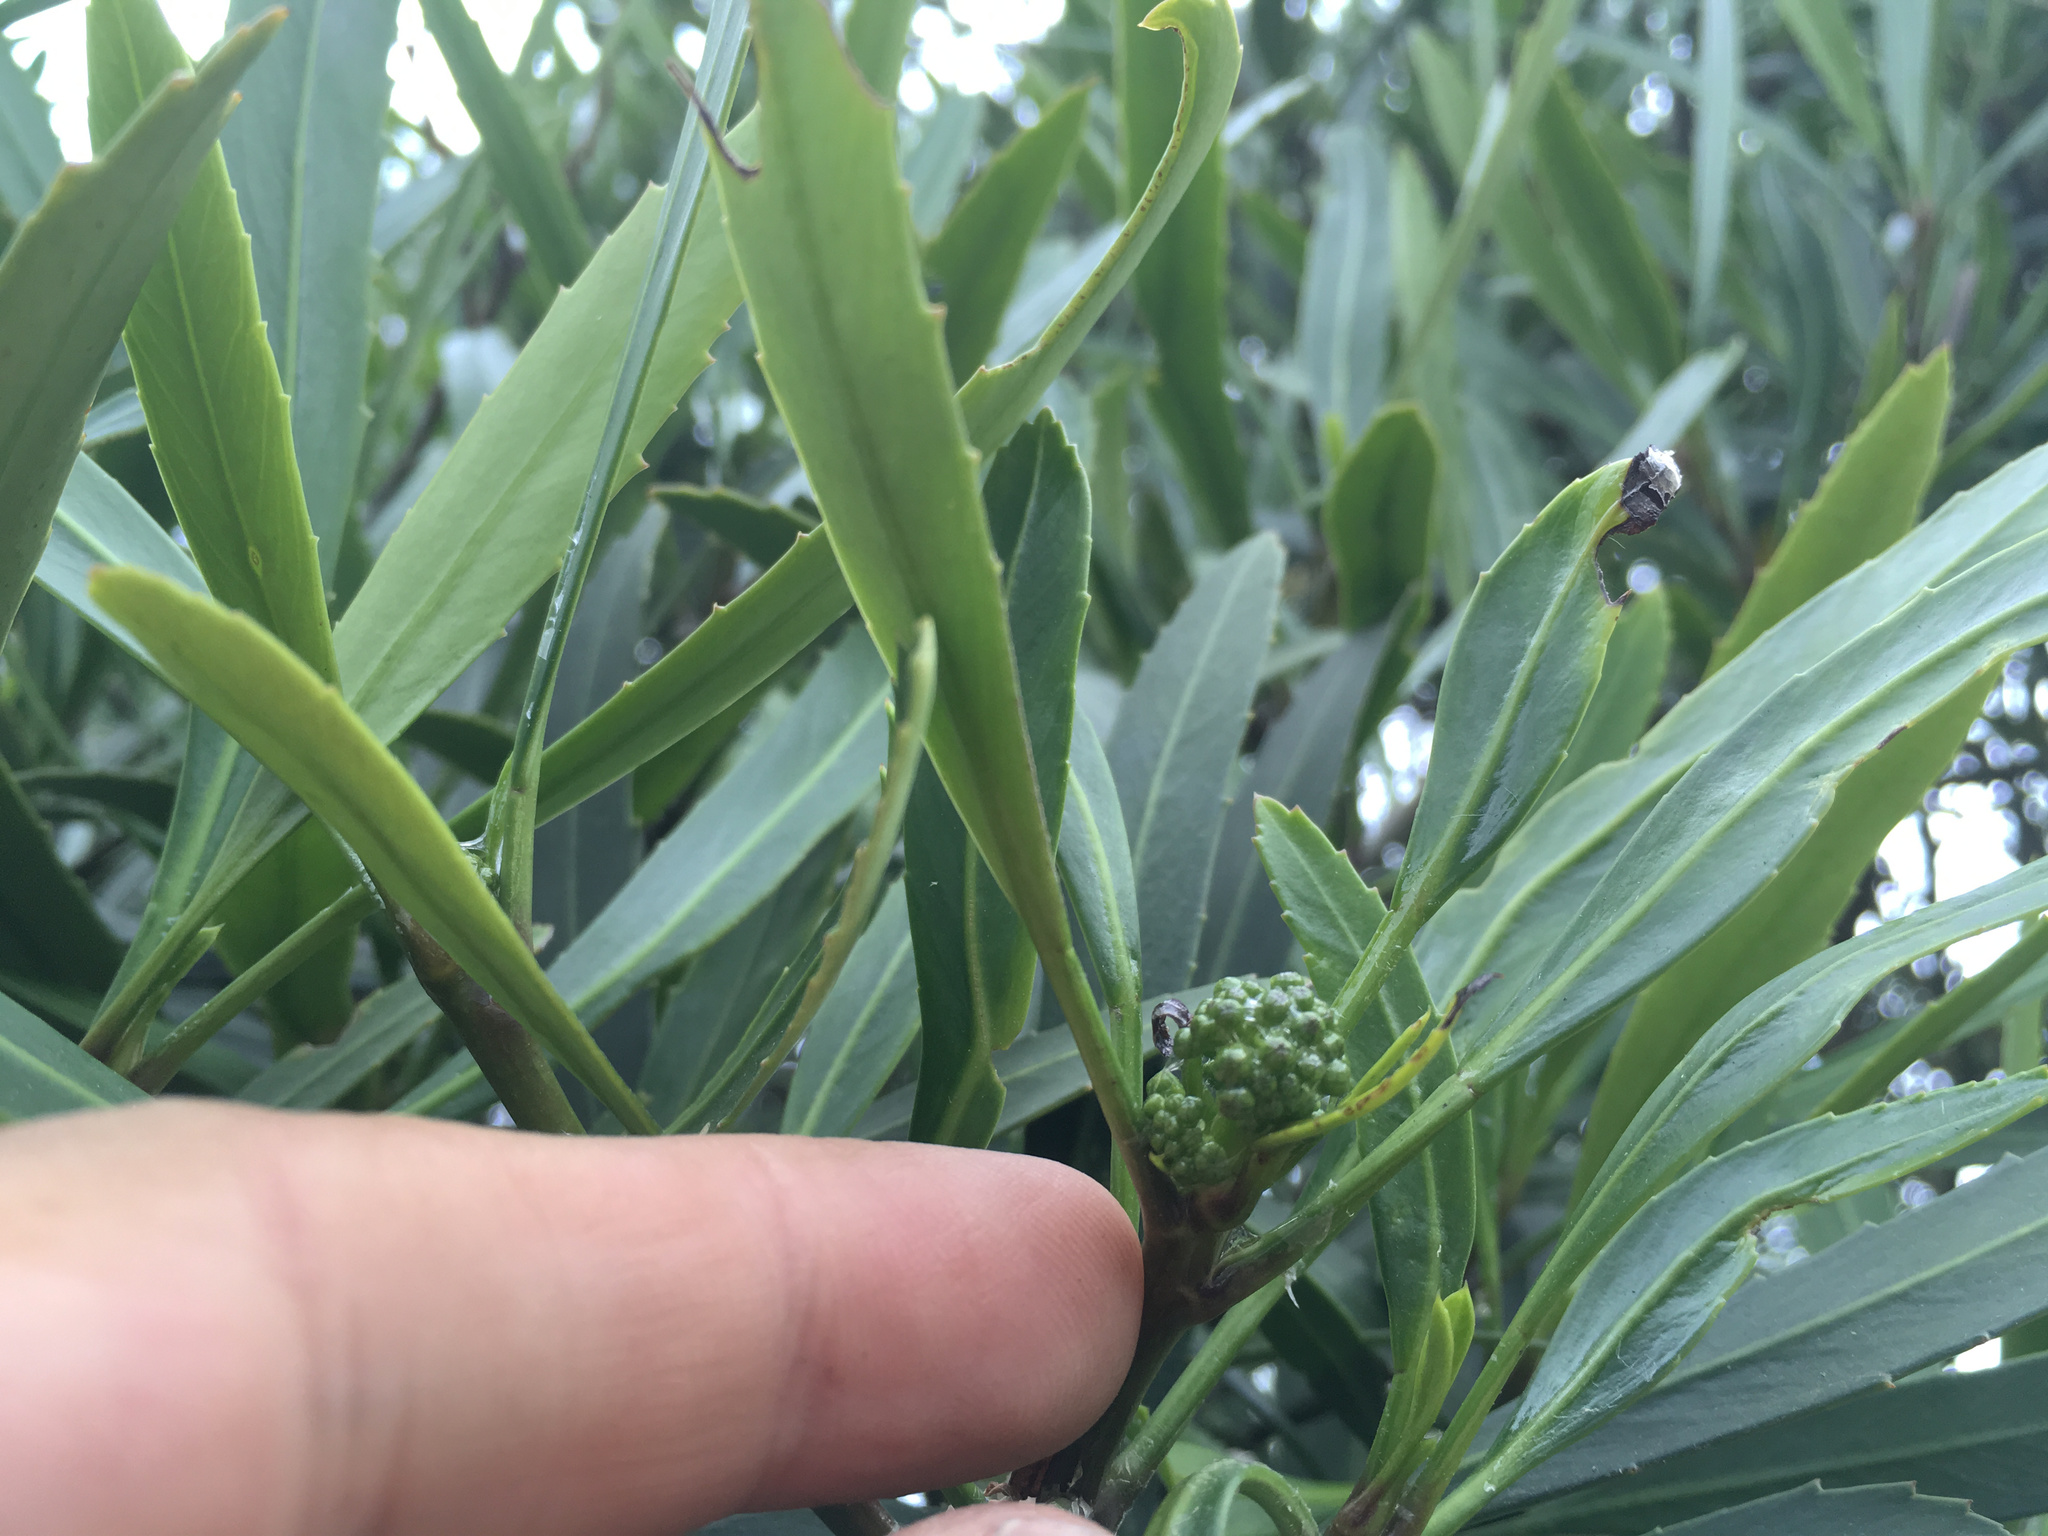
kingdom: Plantae
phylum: Tracheophyta
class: Magnoliopsida
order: Apiales
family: Araliaceae
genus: Pseudopanax
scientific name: Pseudopanax crassifolius
